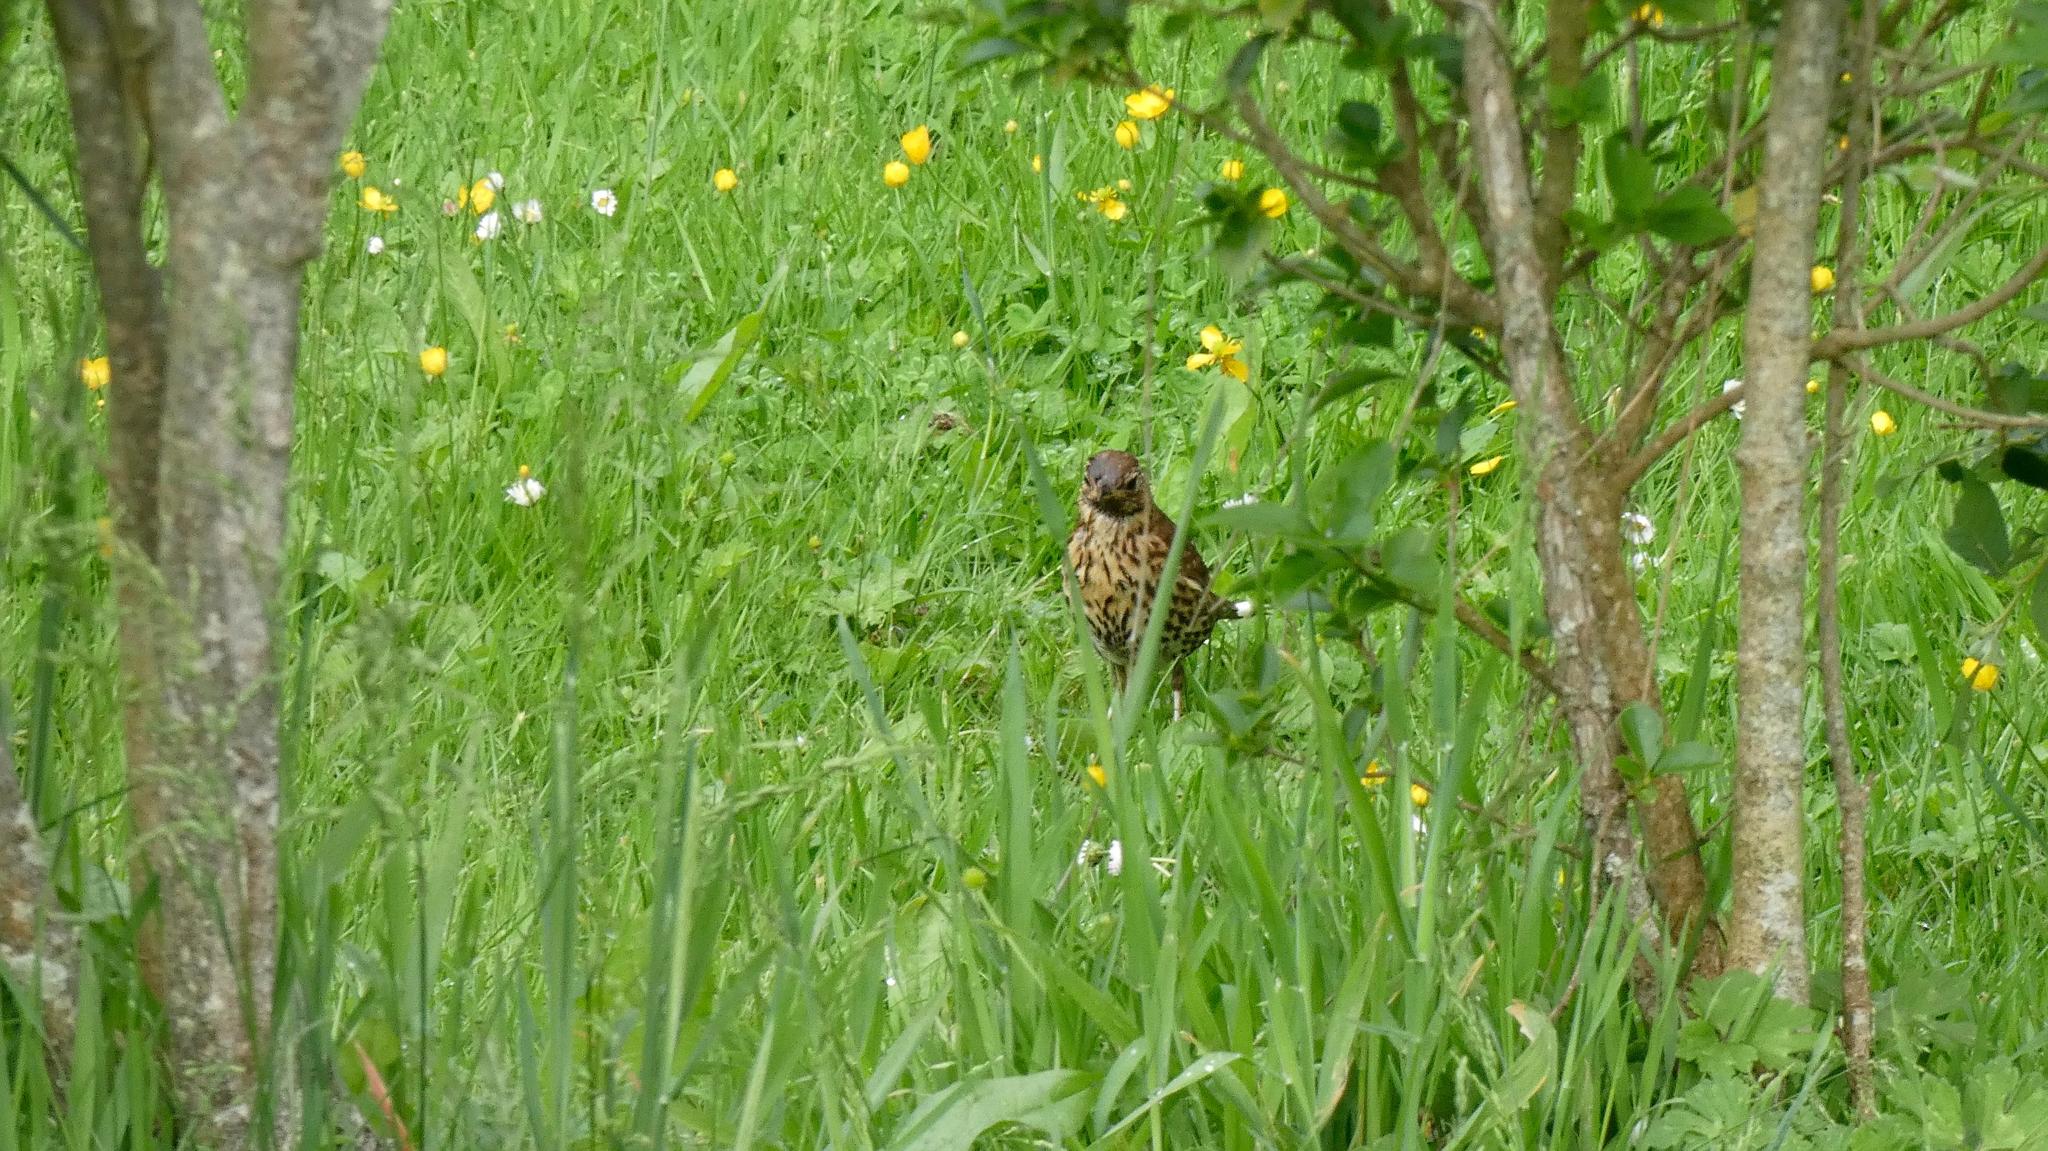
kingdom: Animalia
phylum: Chordata
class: Aves
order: Passeriformes
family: Turdidae
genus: Turdus
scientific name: Turdus philomelos
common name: Song thrush
